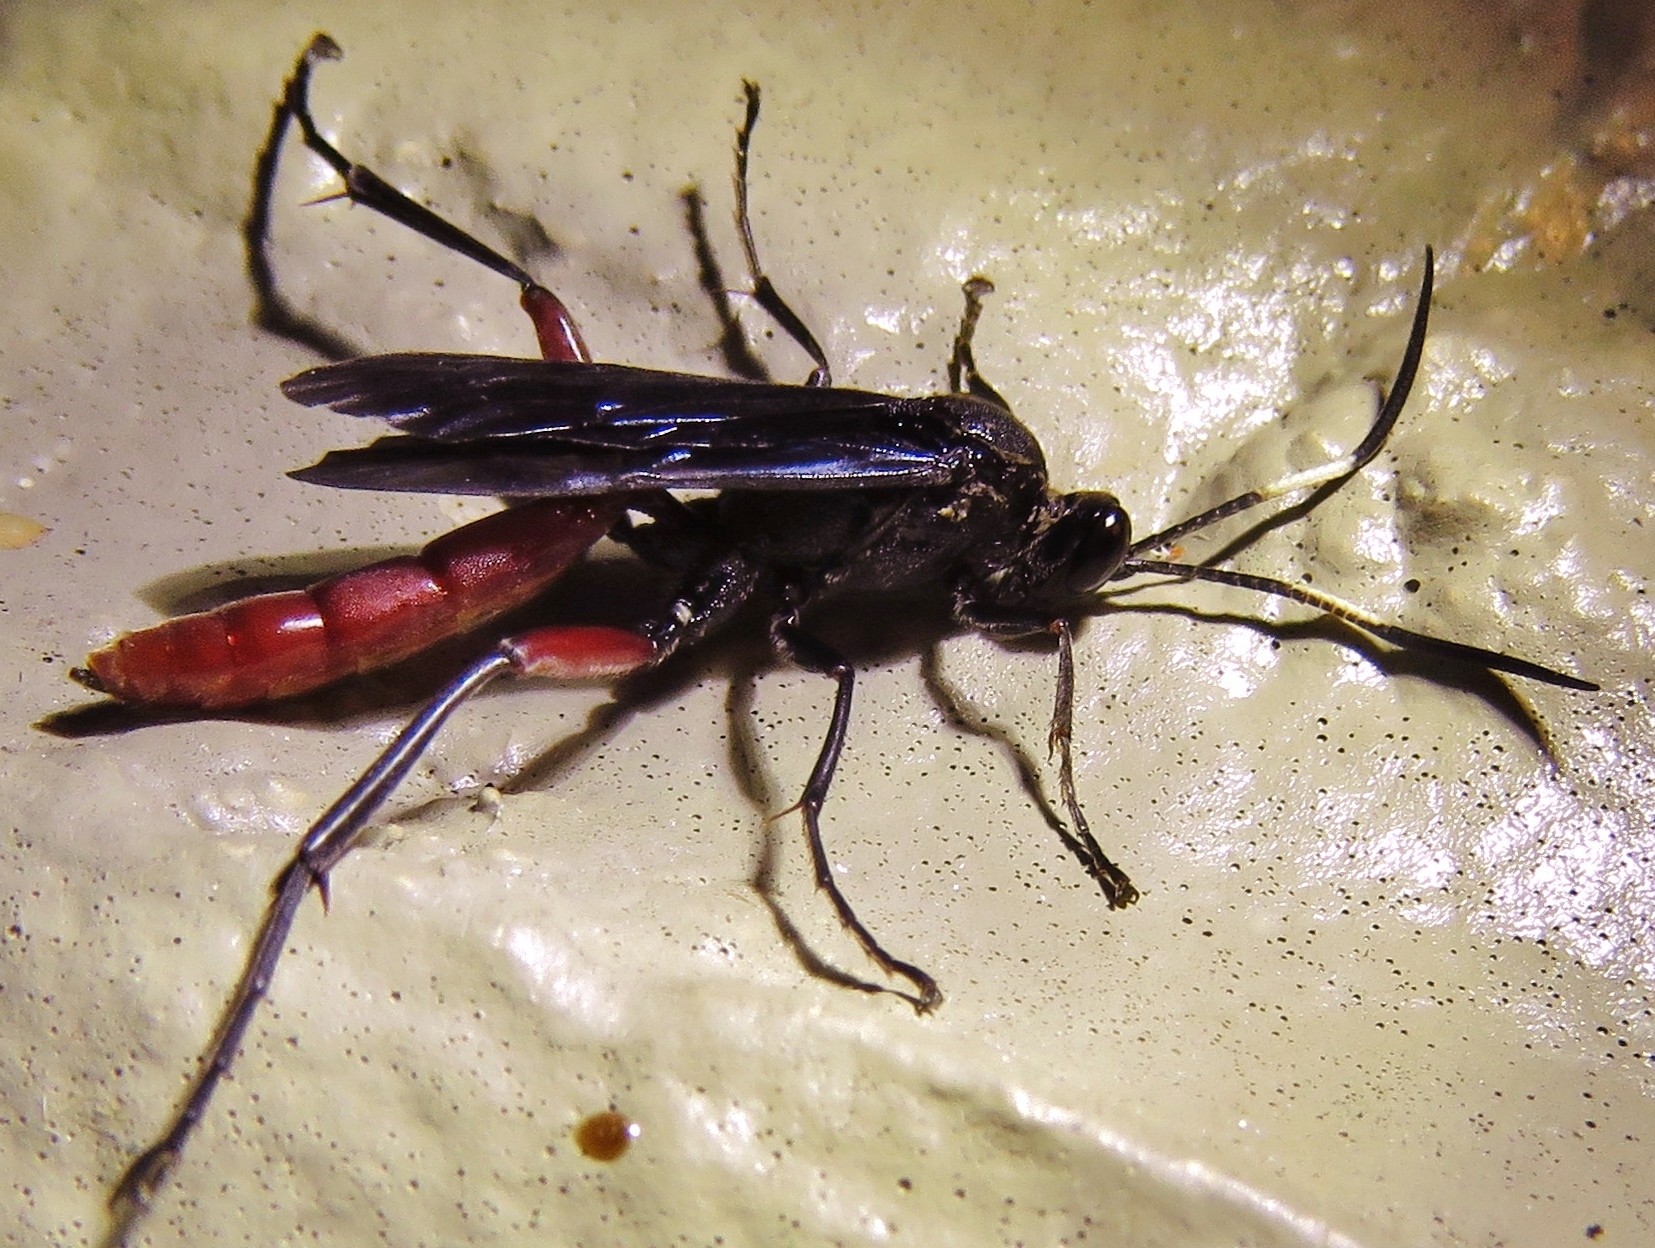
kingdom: Animalia
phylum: Arthropoda
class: Insecta
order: Hymenoptera
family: Ichneumonidae
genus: Limonethe
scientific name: Limonethe maurator
